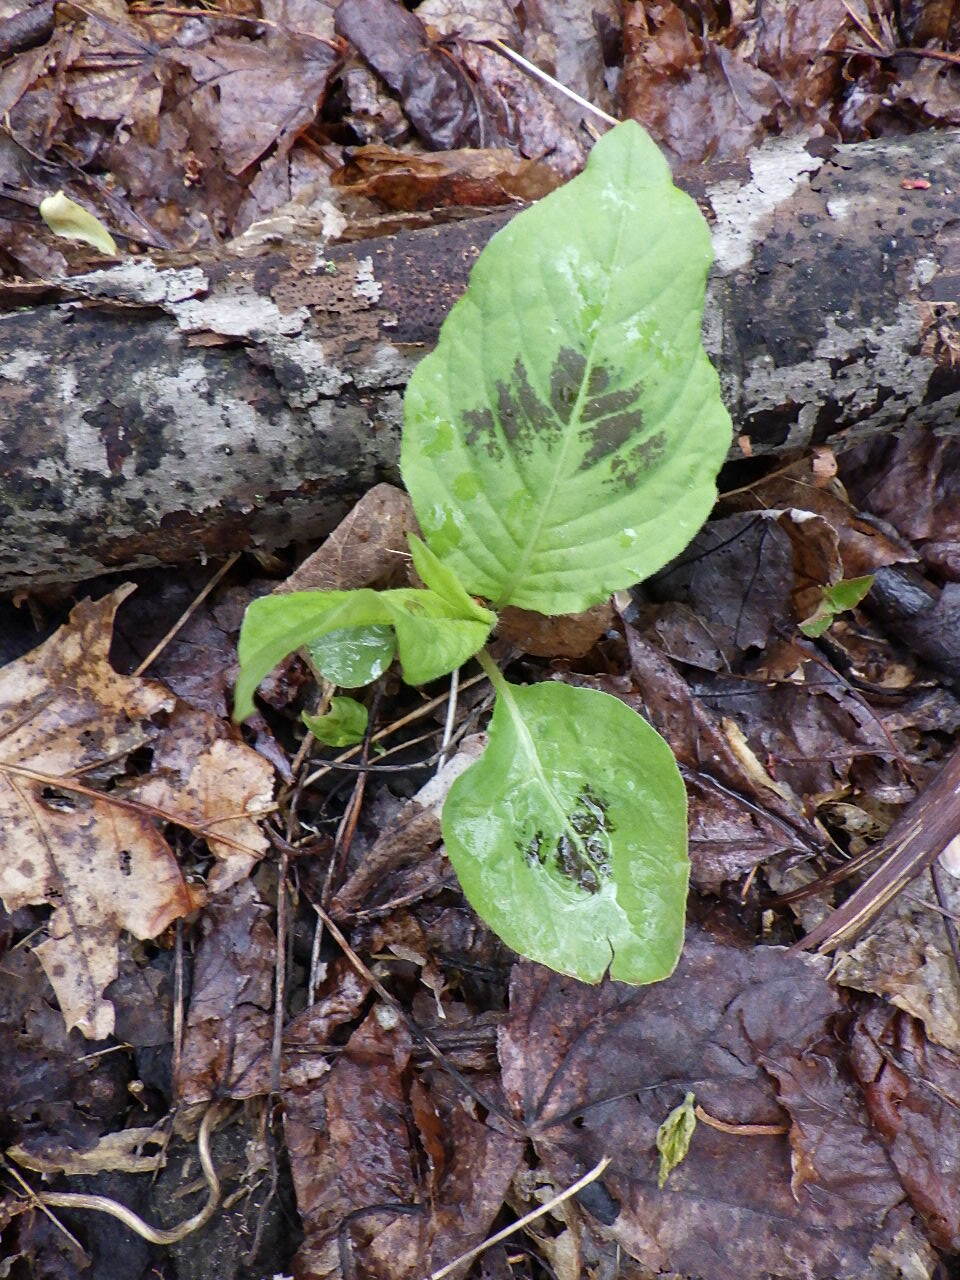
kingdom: Plantae
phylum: Tracheophyta
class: Magnoliopsida
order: Caryophyllales
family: Polygonaceae
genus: Persicaria
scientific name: Persicaria virginiana
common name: Jumpseed
